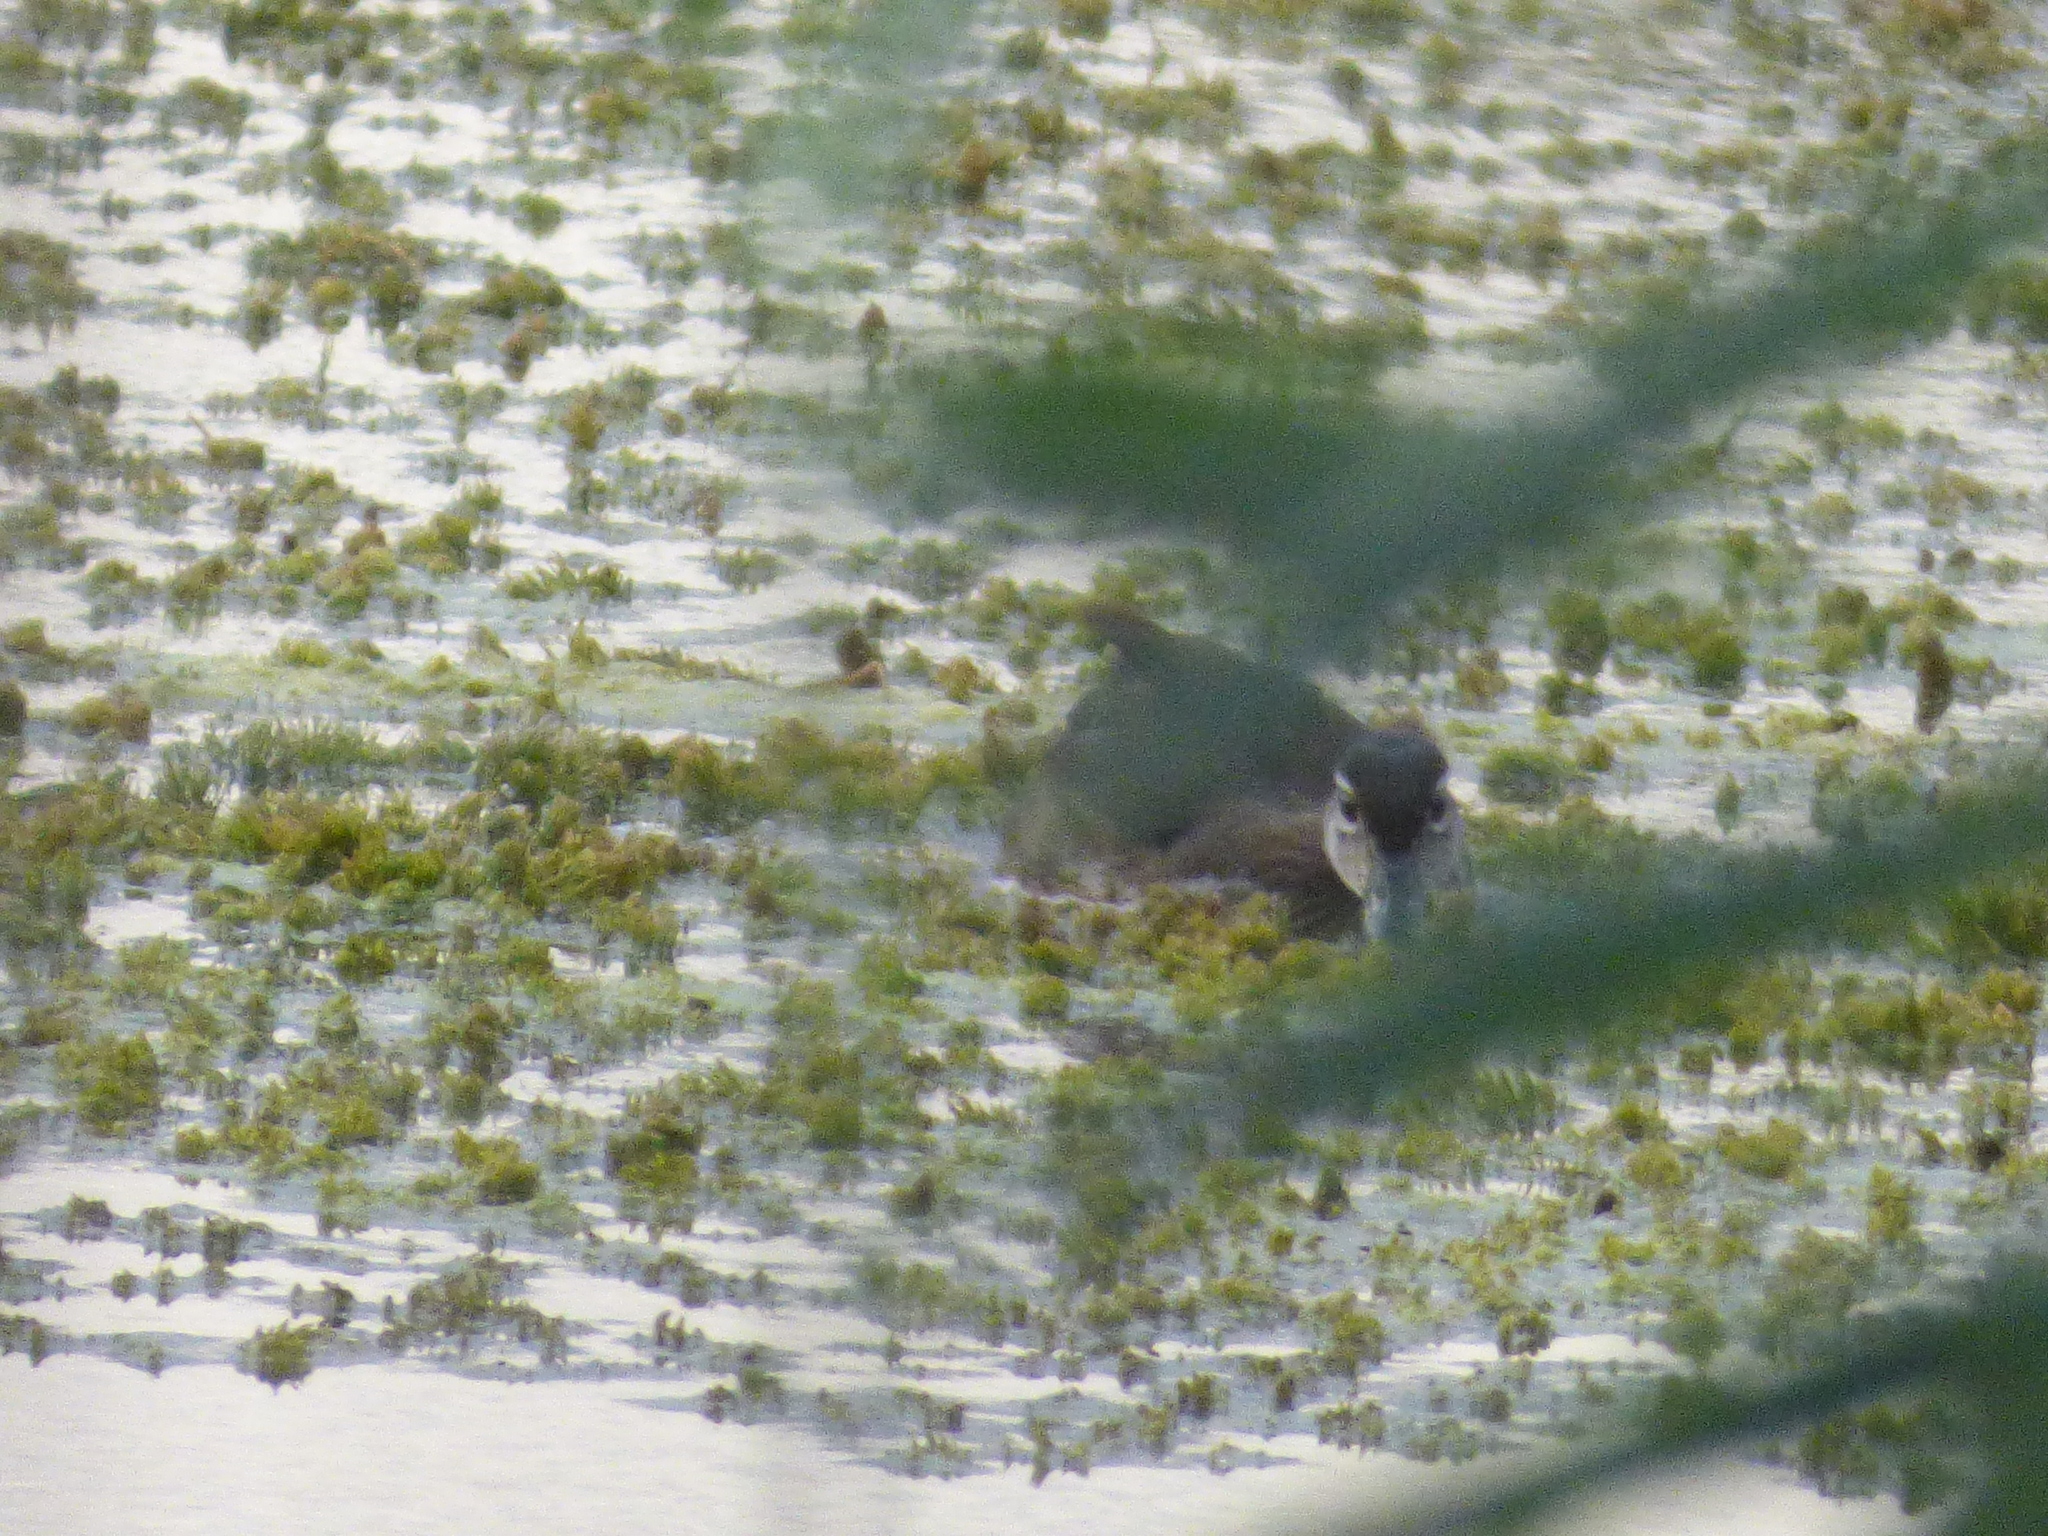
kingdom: Animalia
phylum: Chordata
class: Aves
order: Anseriformes
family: Anatidae
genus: Aix
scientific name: Aix sponsa
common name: Wood duck
